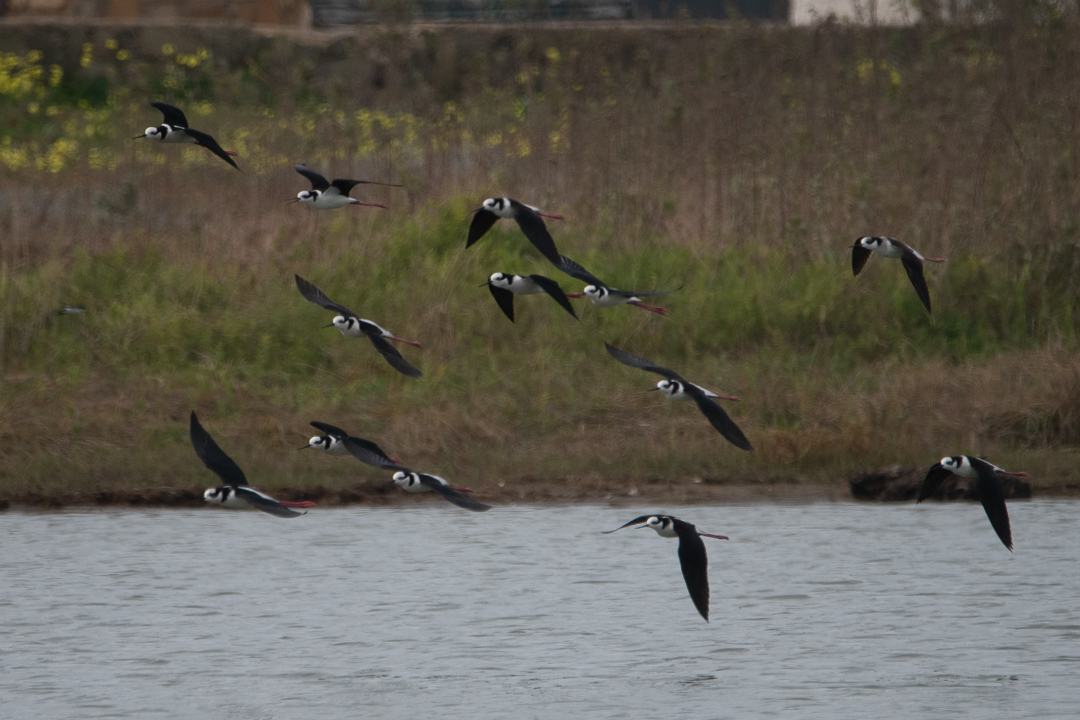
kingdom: Animalia
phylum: Chordata
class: Aves
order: Charadriiformes
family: Recurvirostridae
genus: Himantopus
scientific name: Himantopus mexicanus
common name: Black-necked stilt
